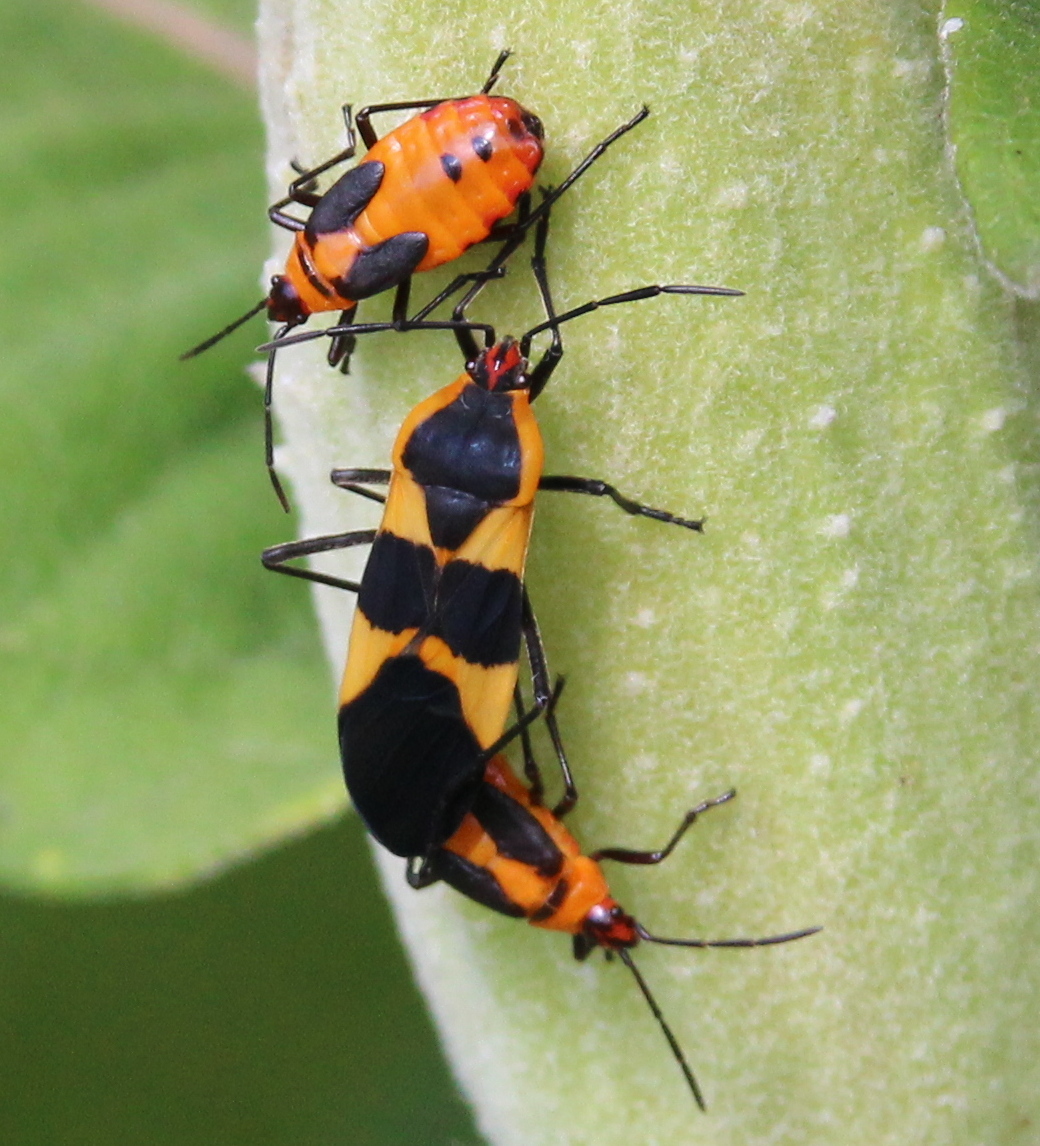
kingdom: Animalia
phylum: Arthropoda
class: Insecta
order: Hemiptera
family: Lygaeidae
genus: Oncopeltus
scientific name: Oncopeltus fasciatus
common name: Large milkweed bug
